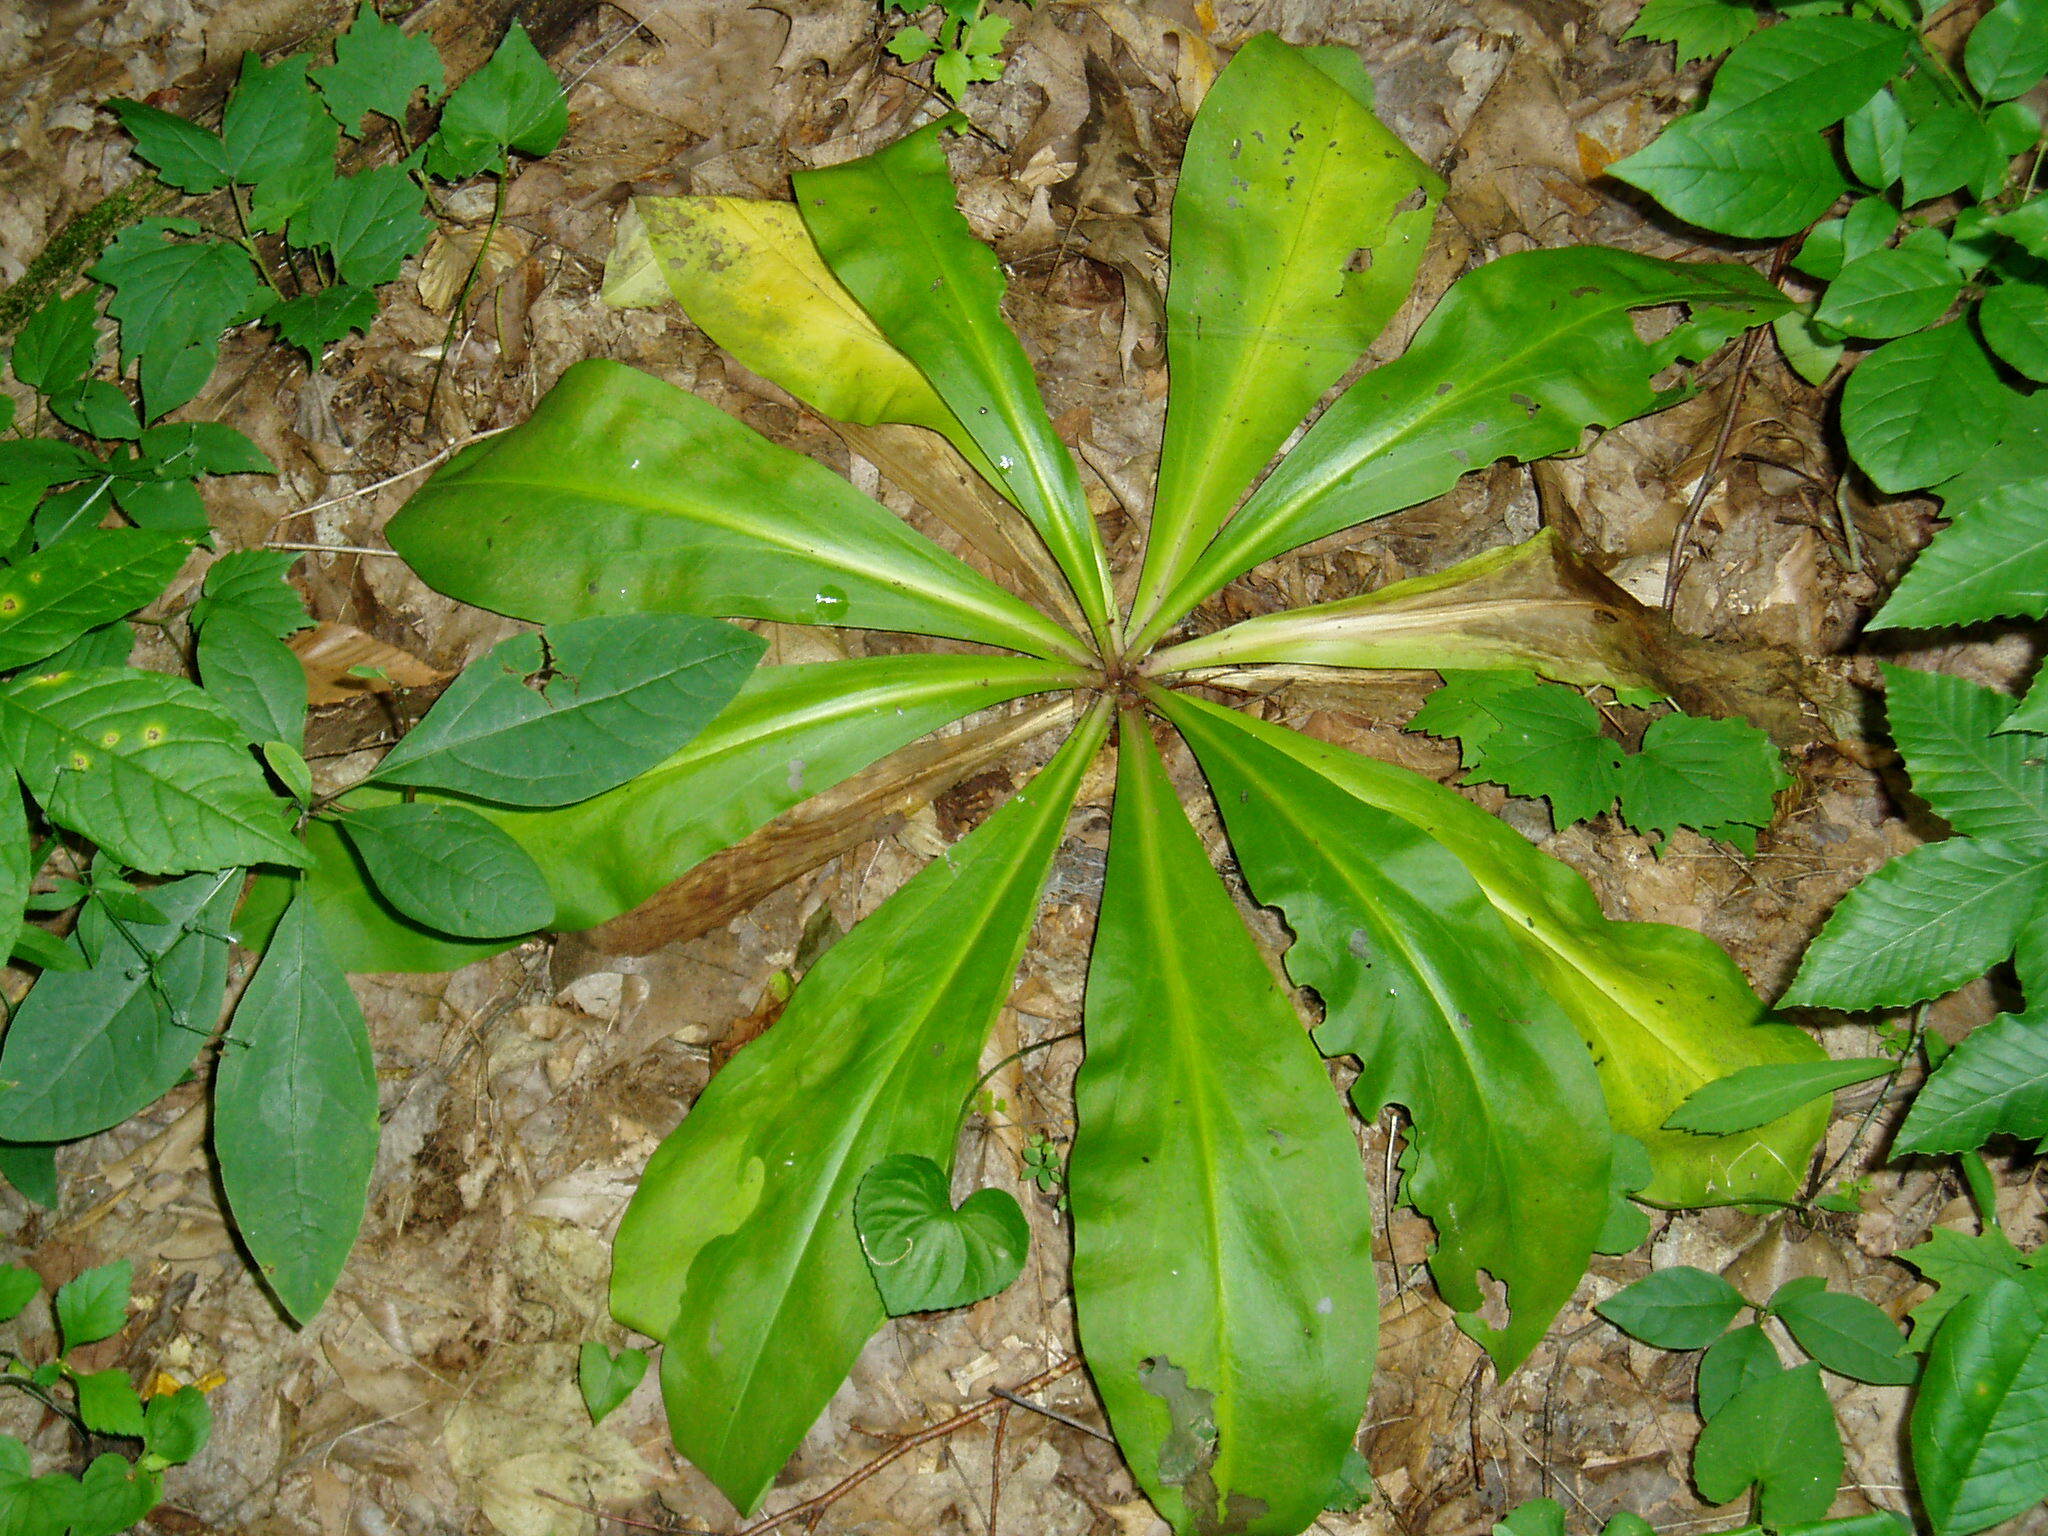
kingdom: Plantae
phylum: Tracheophyta
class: Magnoliopsida
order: Gentianales
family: Gentianaceae
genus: Frasera
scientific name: Frasera caroliniensis
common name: American columbo
